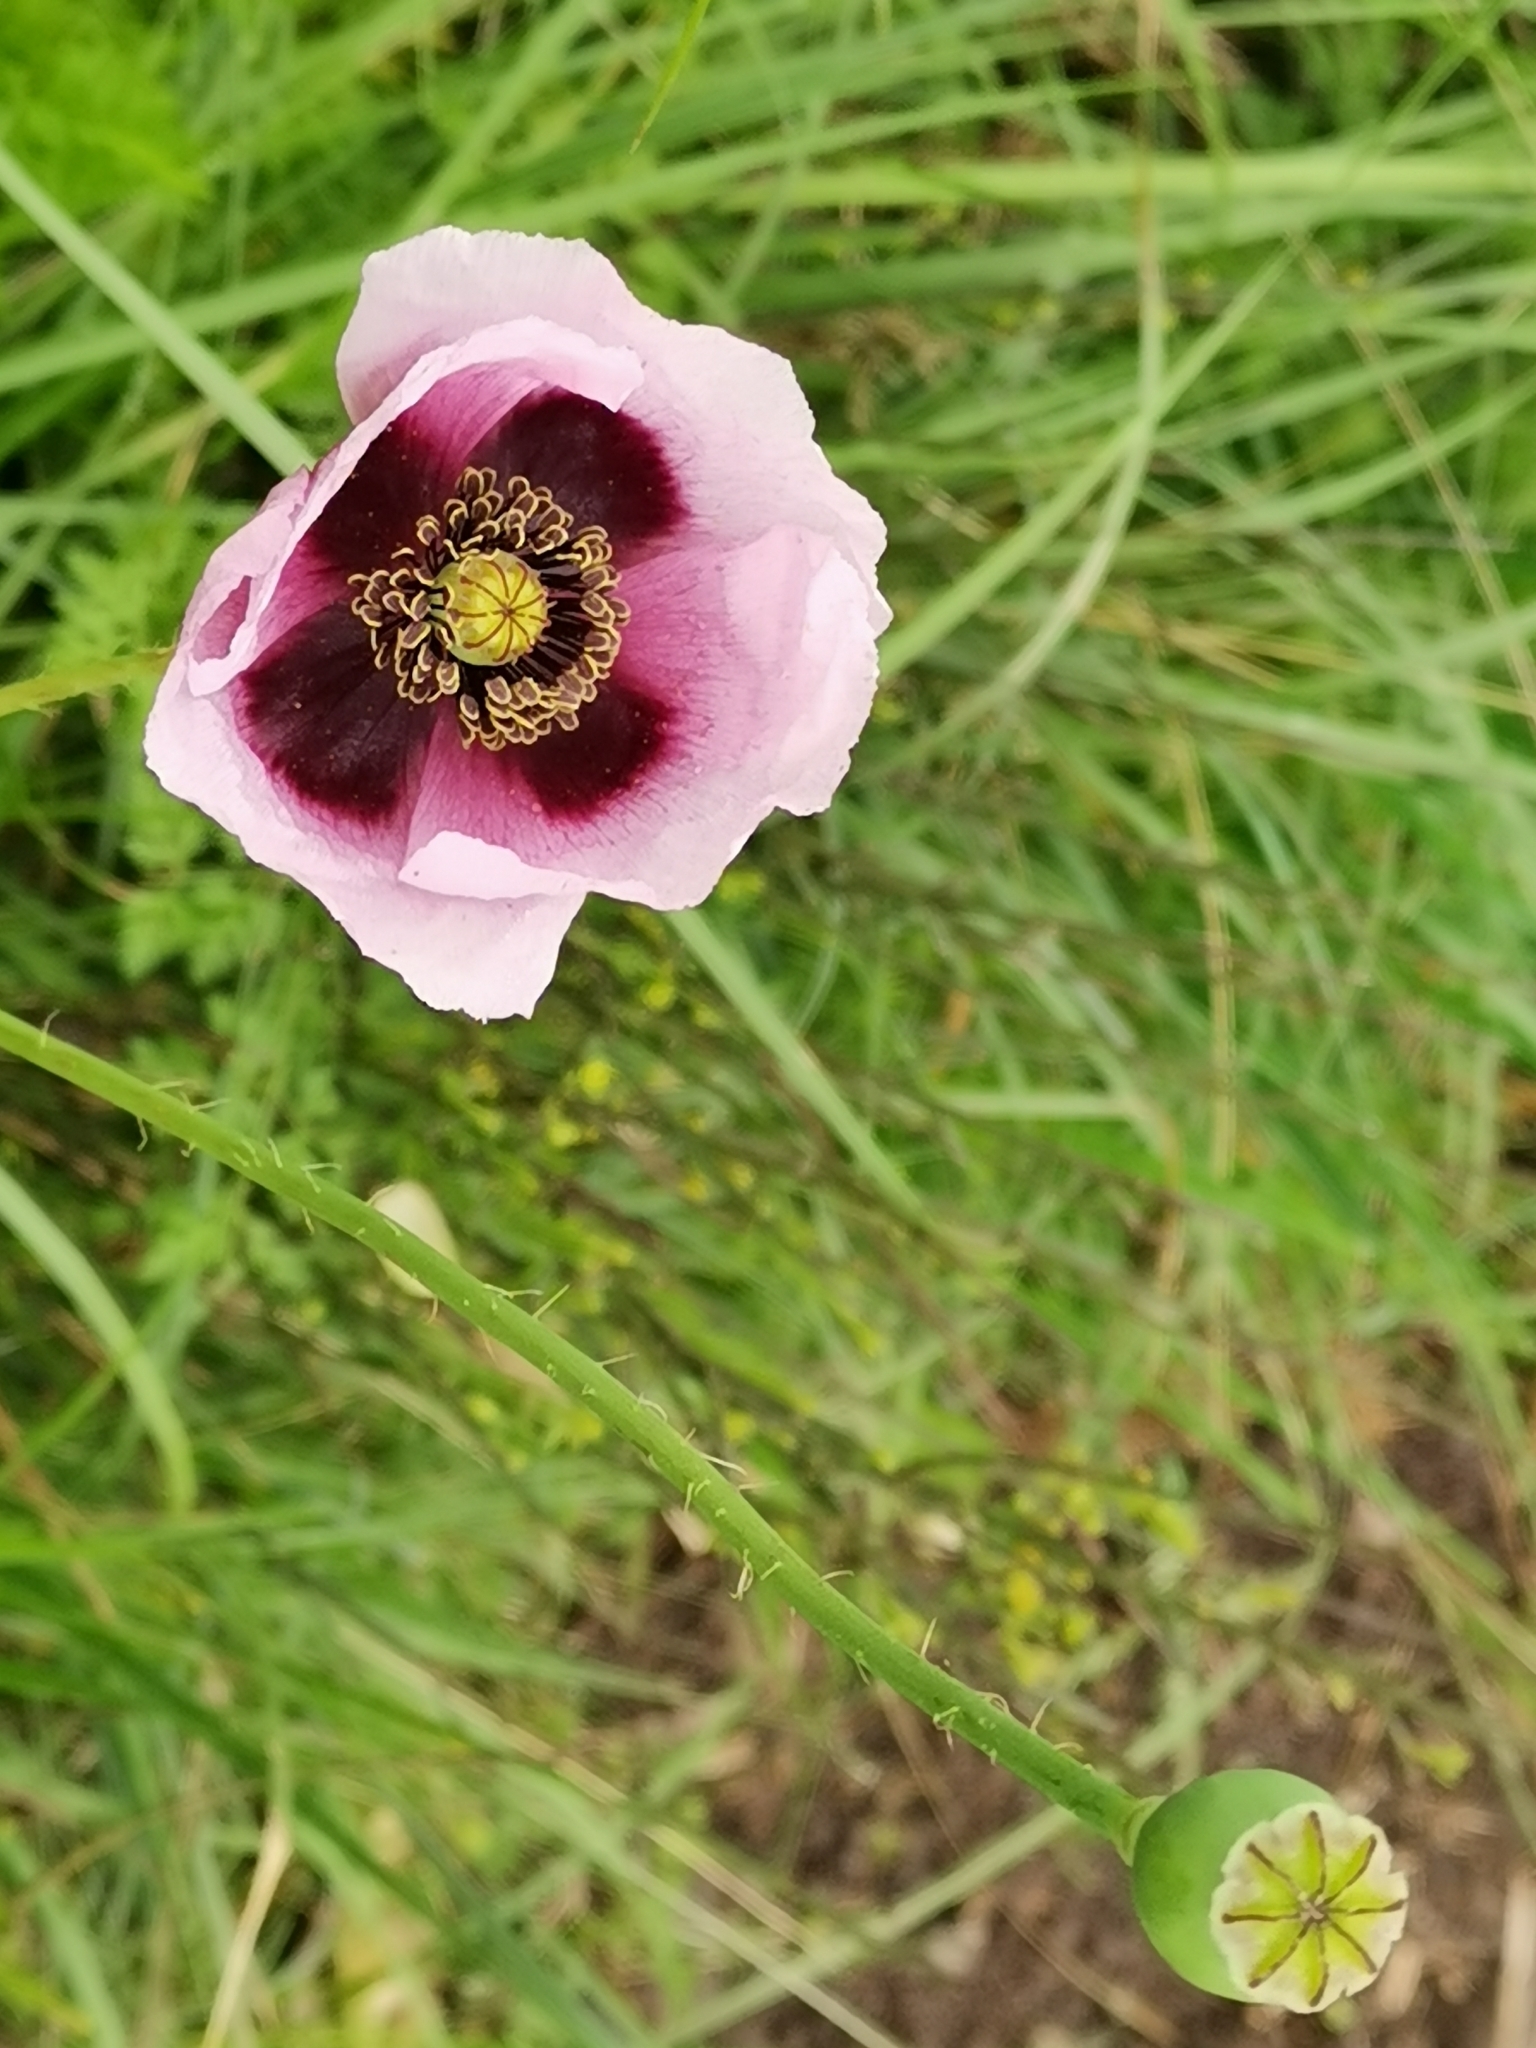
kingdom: Plantae
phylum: Tracheophyta
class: Magnoliopsida
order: Ranunculales
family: Papaveraceae
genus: Papaver
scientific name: Papaver somniferum
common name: Opium poppy
